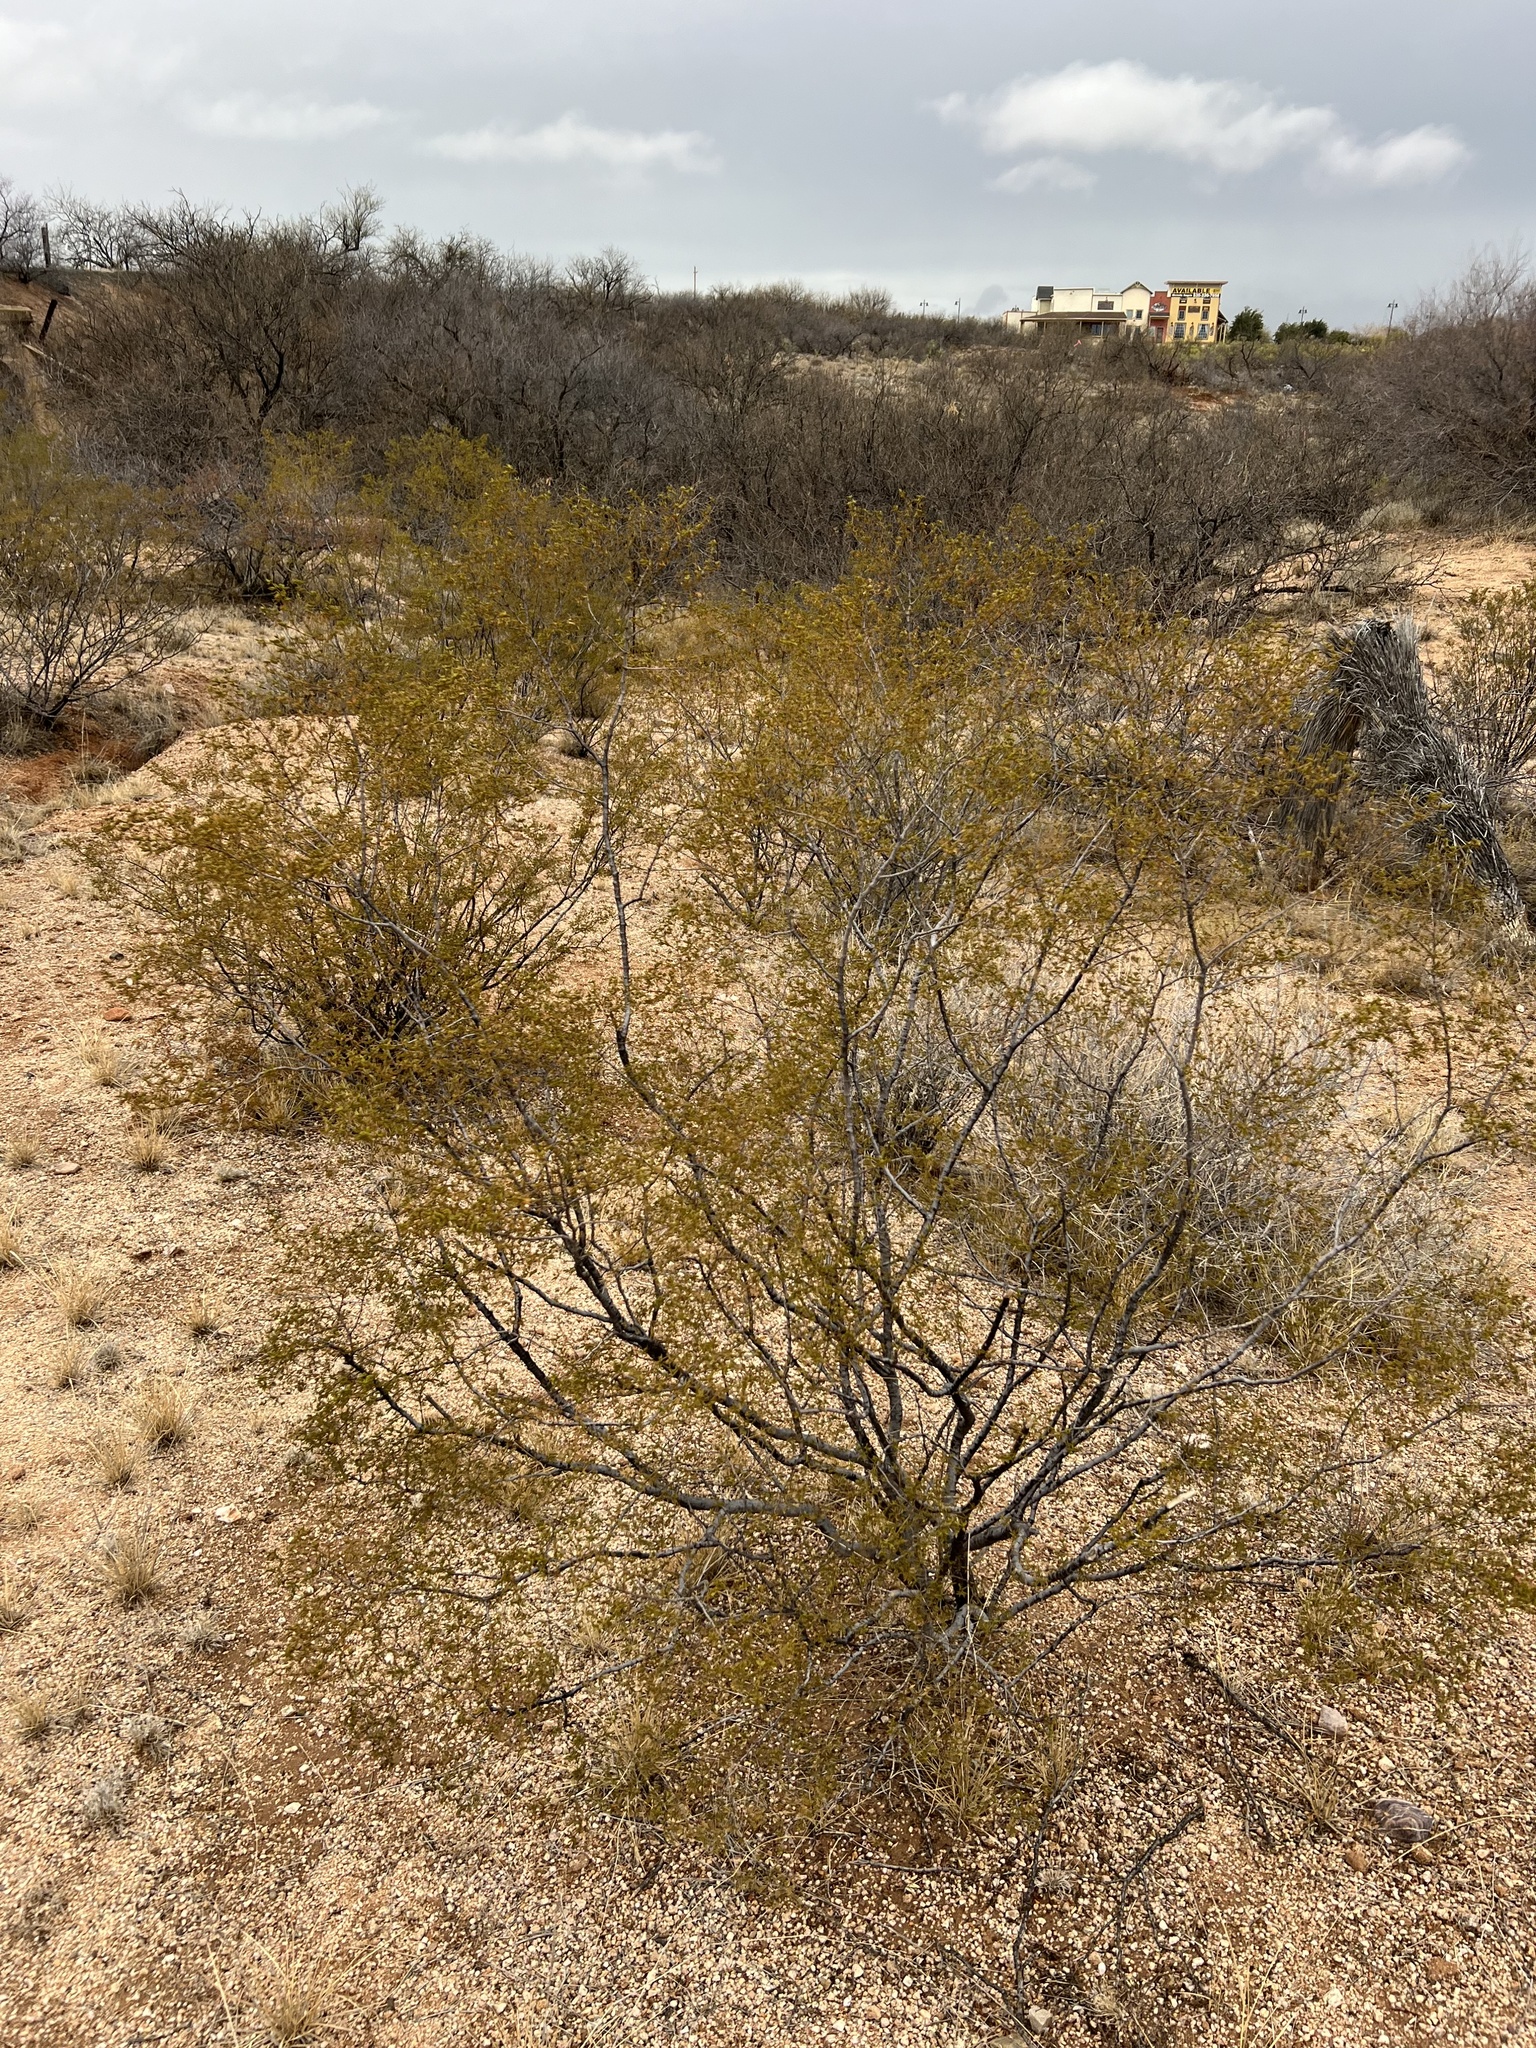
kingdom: Plantae
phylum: Tracheophyta
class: Magnoliopsida
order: Zygophyllales
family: Zygophyllaceae
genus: Larrea
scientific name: Larrea tridentata
